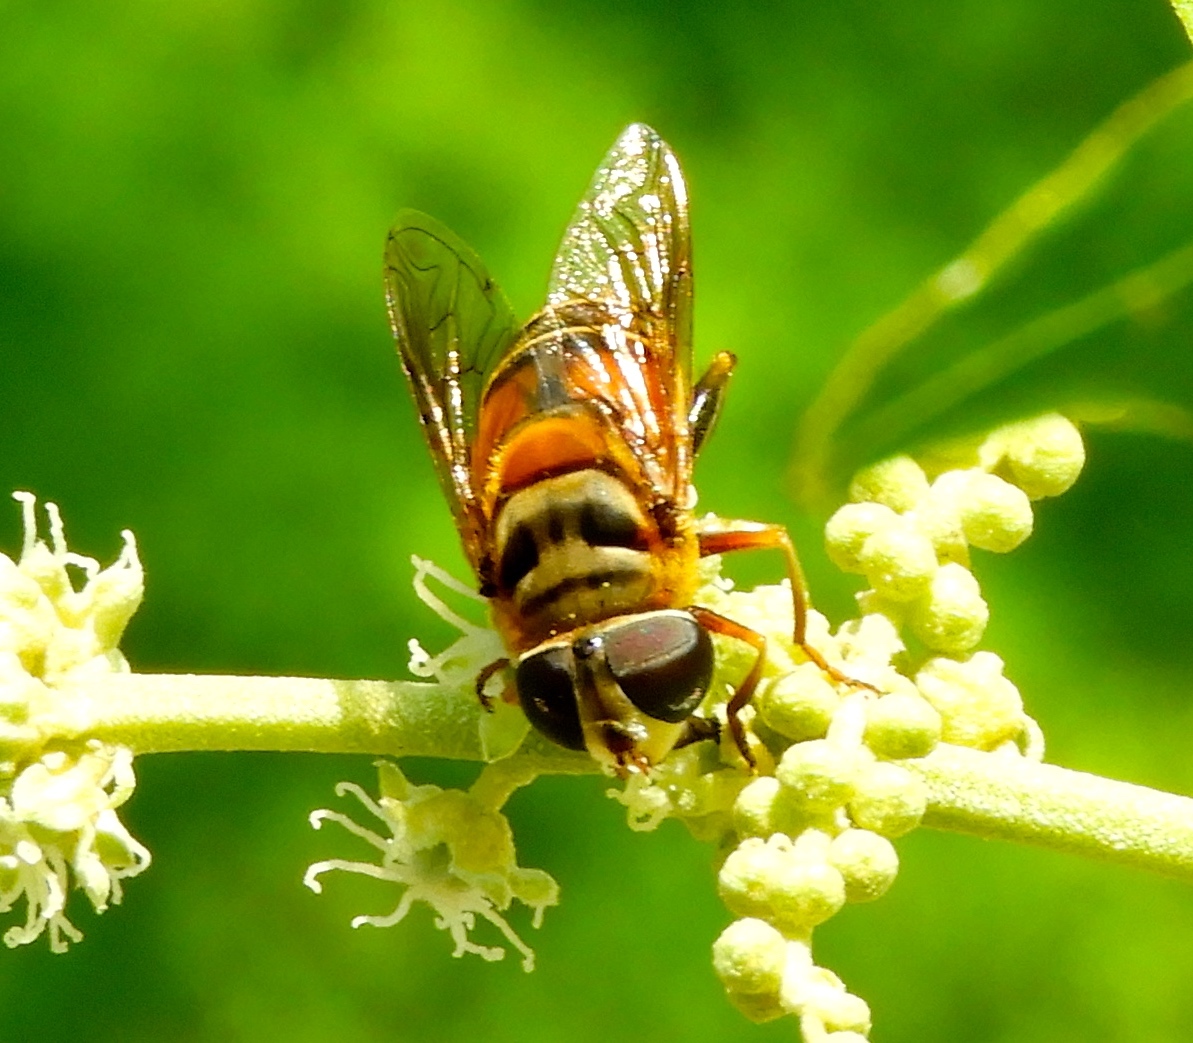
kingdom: Animalia
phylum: Arthropoda
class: Insecta
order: Diptera
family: Syrphidae
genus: Palpada
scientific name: Palpada
